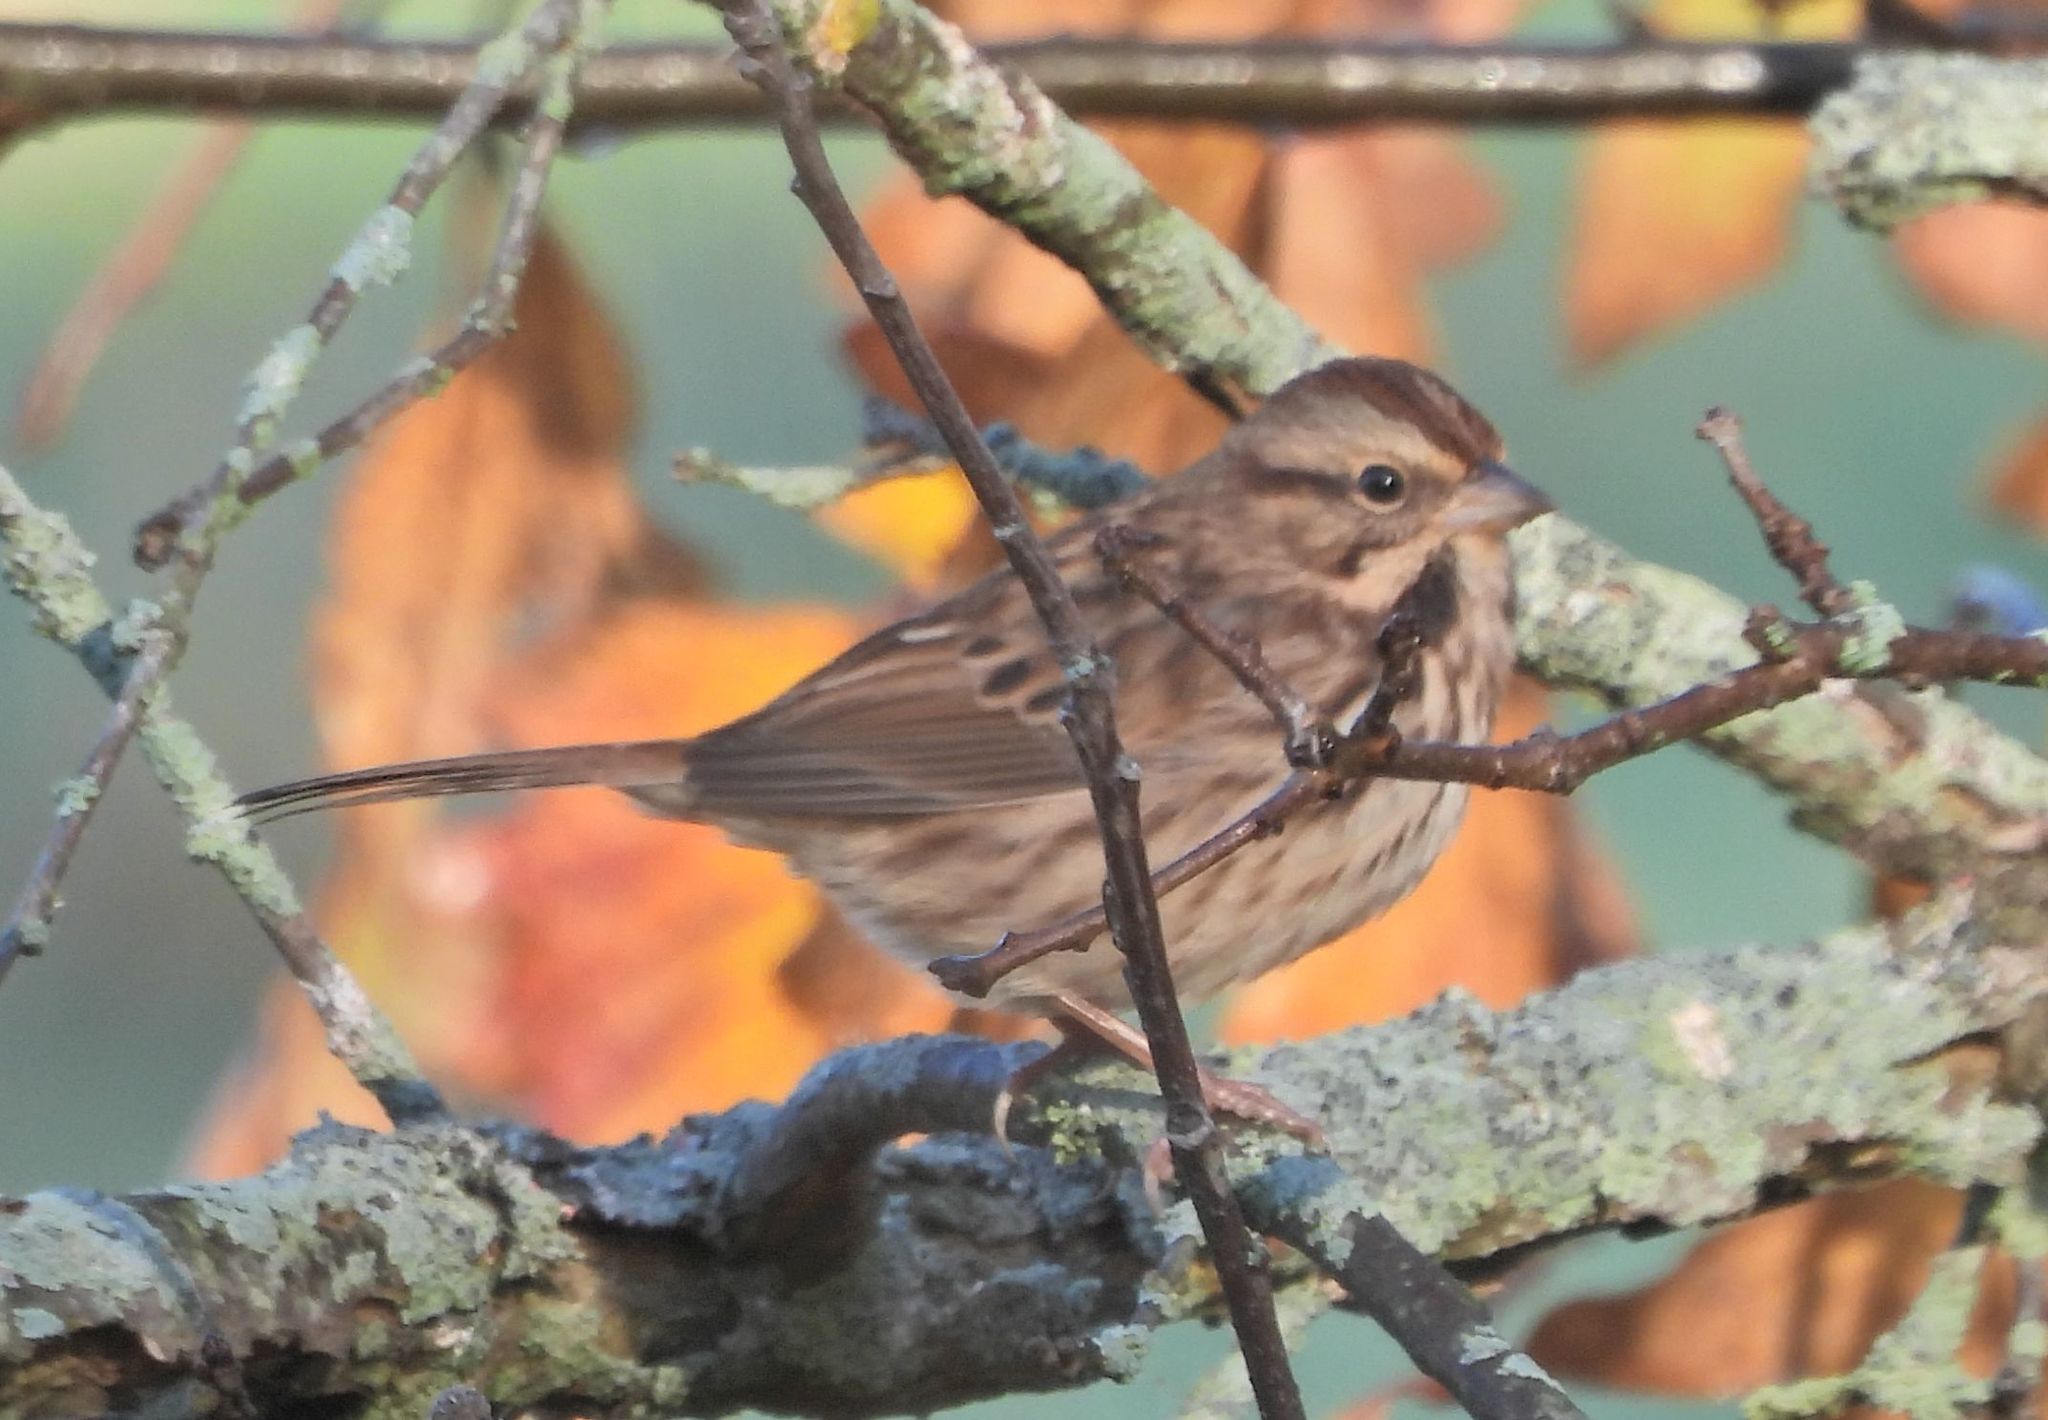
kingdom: Animalia
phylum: Chordata
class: Aves
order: Passeriformes
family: Passerellidae
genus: Melospiza
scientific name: Melospiza melodia
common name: Song sparrow
